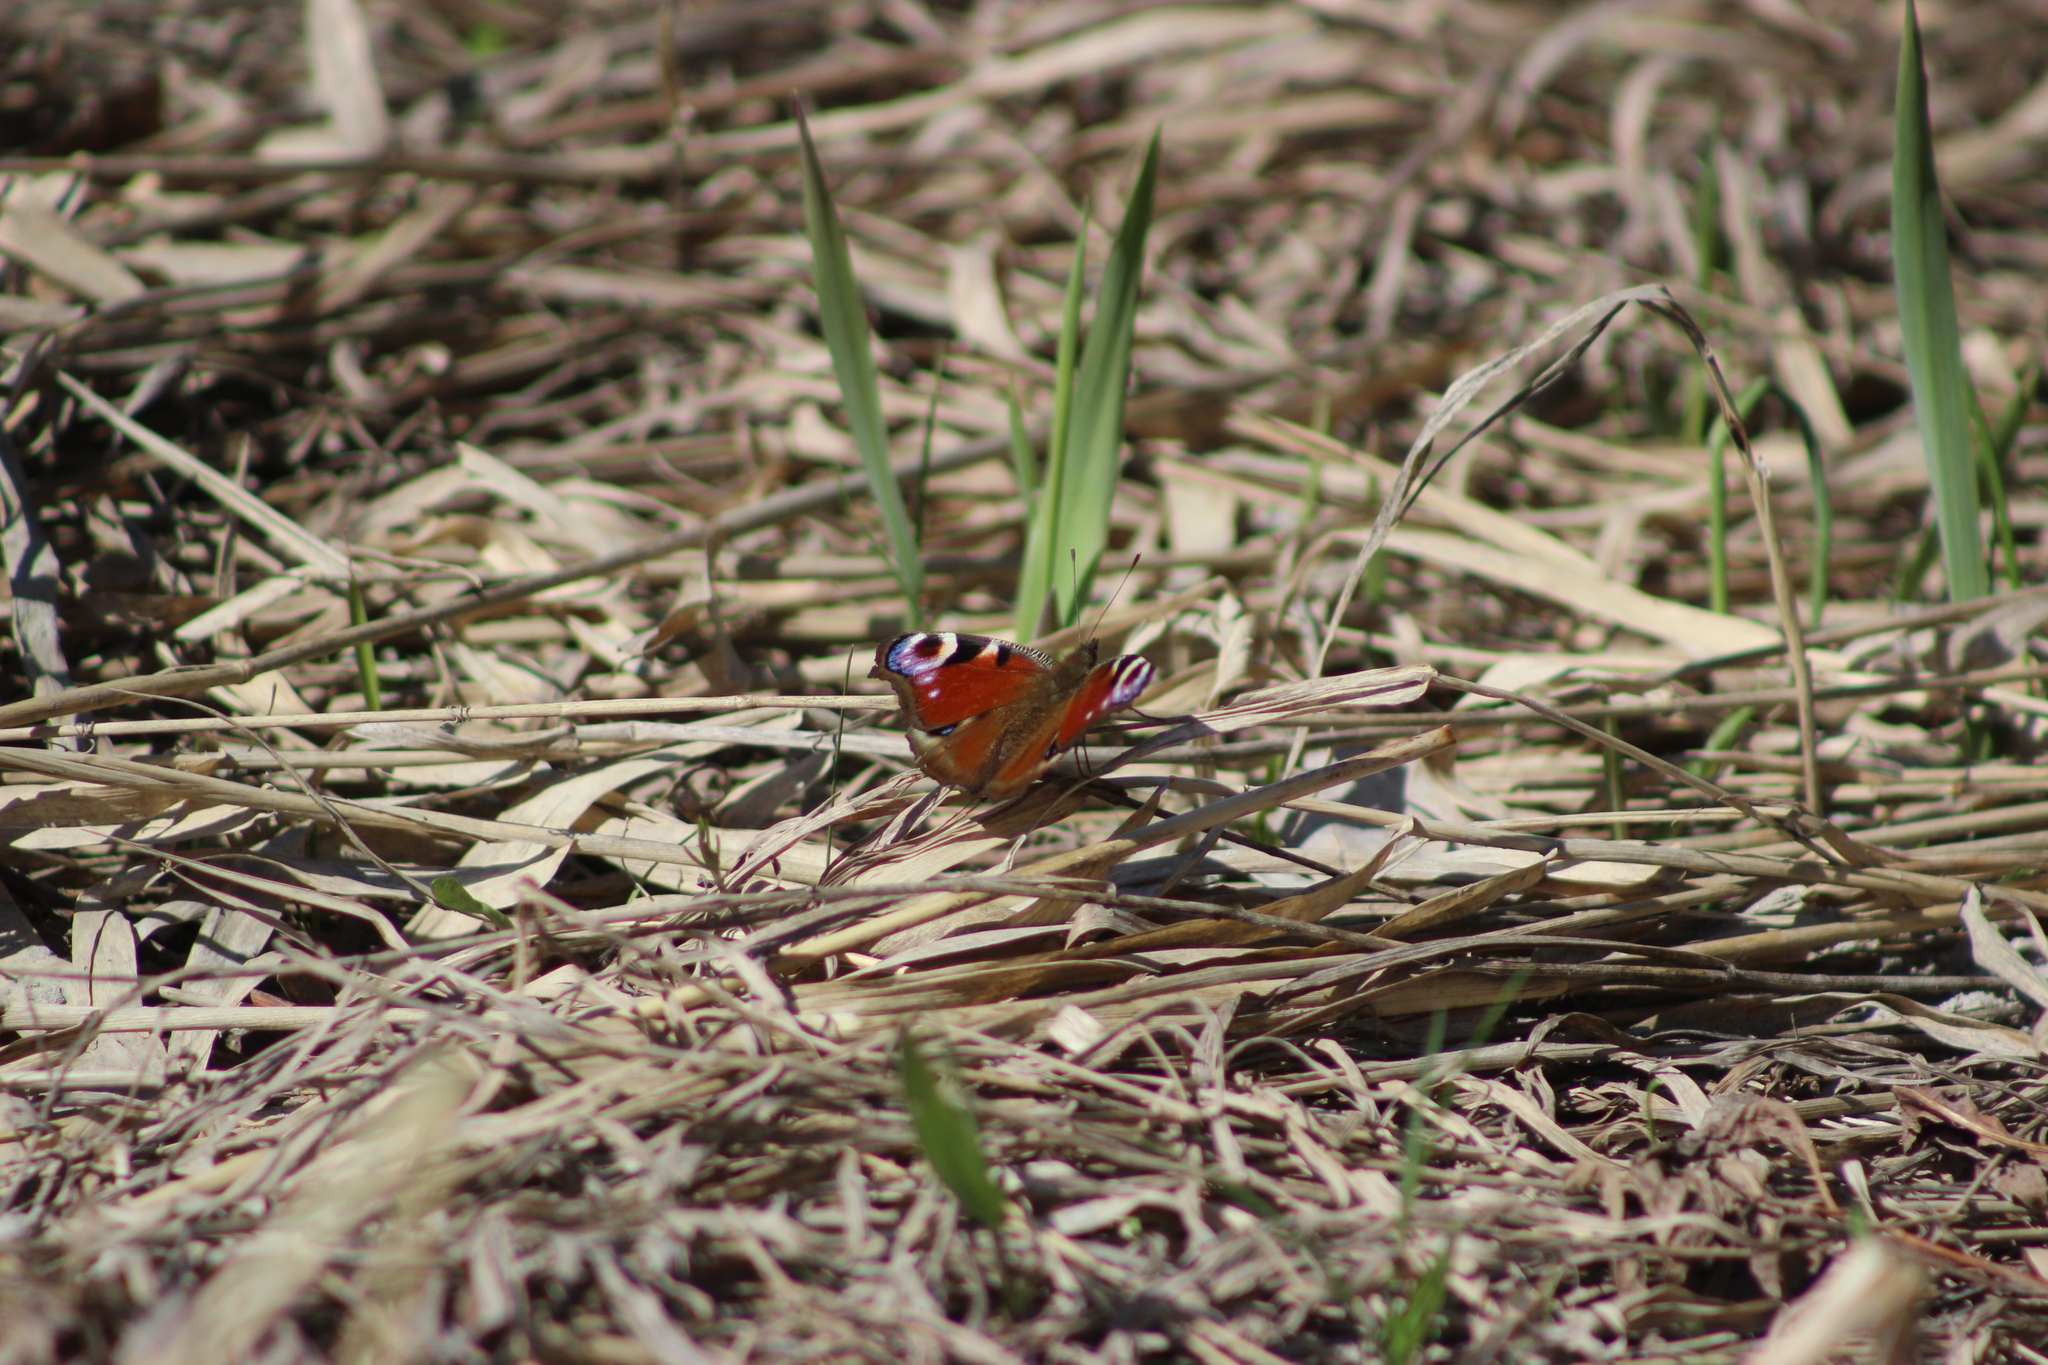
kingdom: Animalia
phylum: Arthropoda
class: Insecta
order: Lepidoptera
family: Nymphalidae
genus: Aglais
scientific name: Aglais io
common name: Peacock
